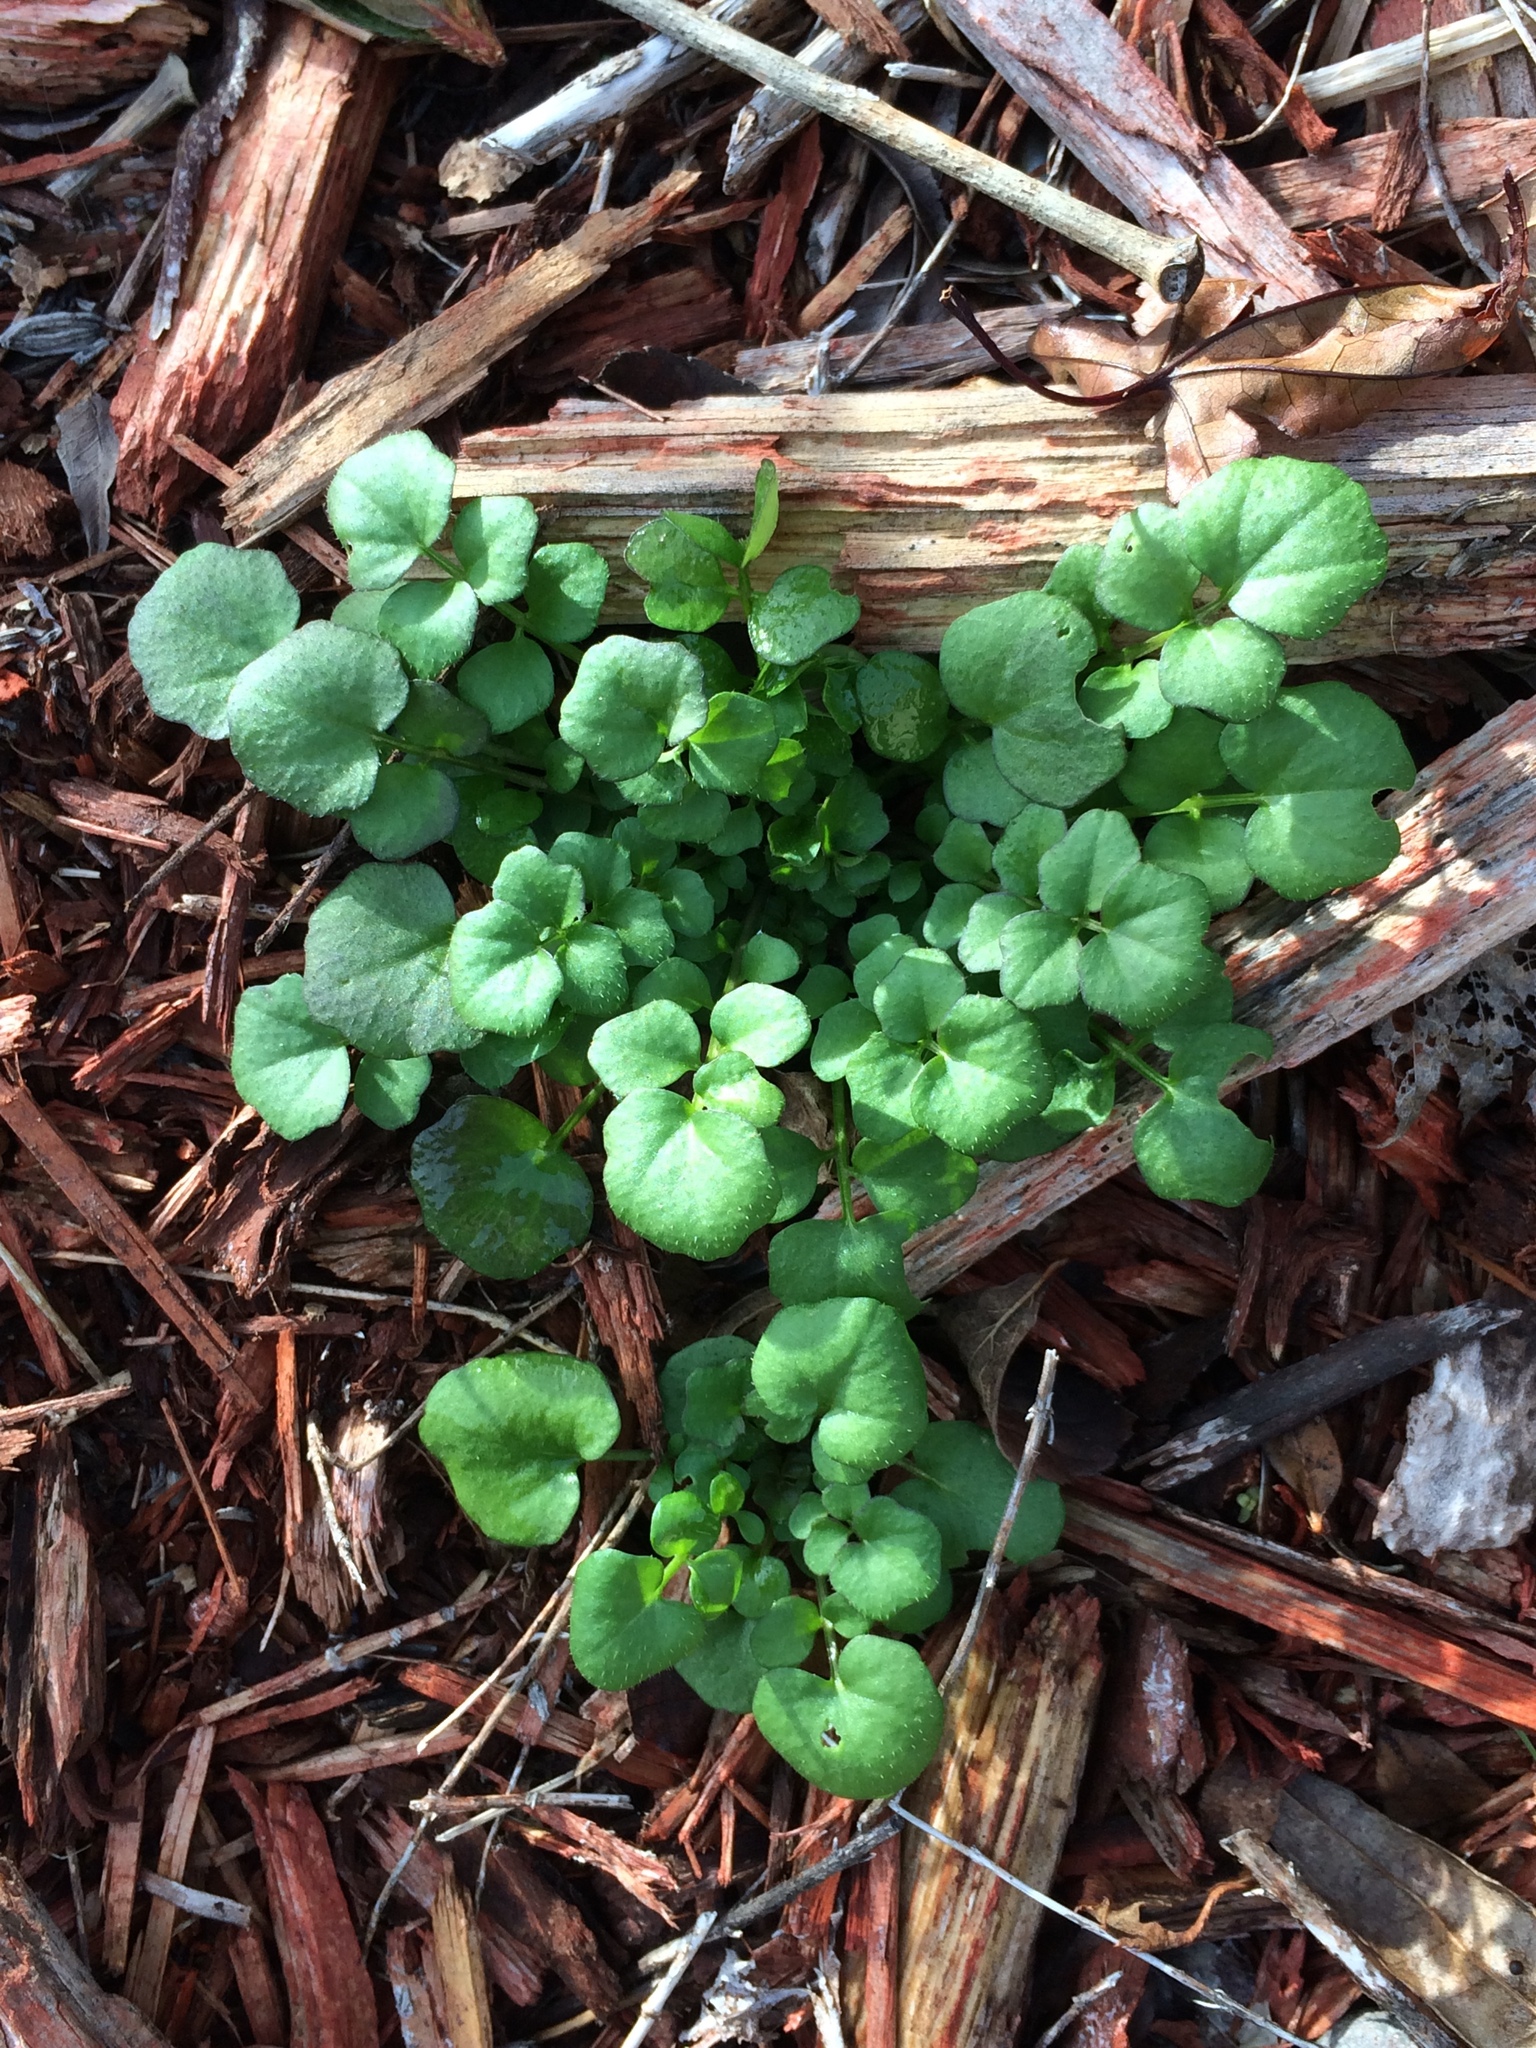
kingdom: Plantae
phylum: Tracheophyta
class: Magnoliopsida
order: Brassicales
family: Brassicaceae
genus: Cardamine
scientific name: Cardamine hirsuta
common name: Hairy bittercress
